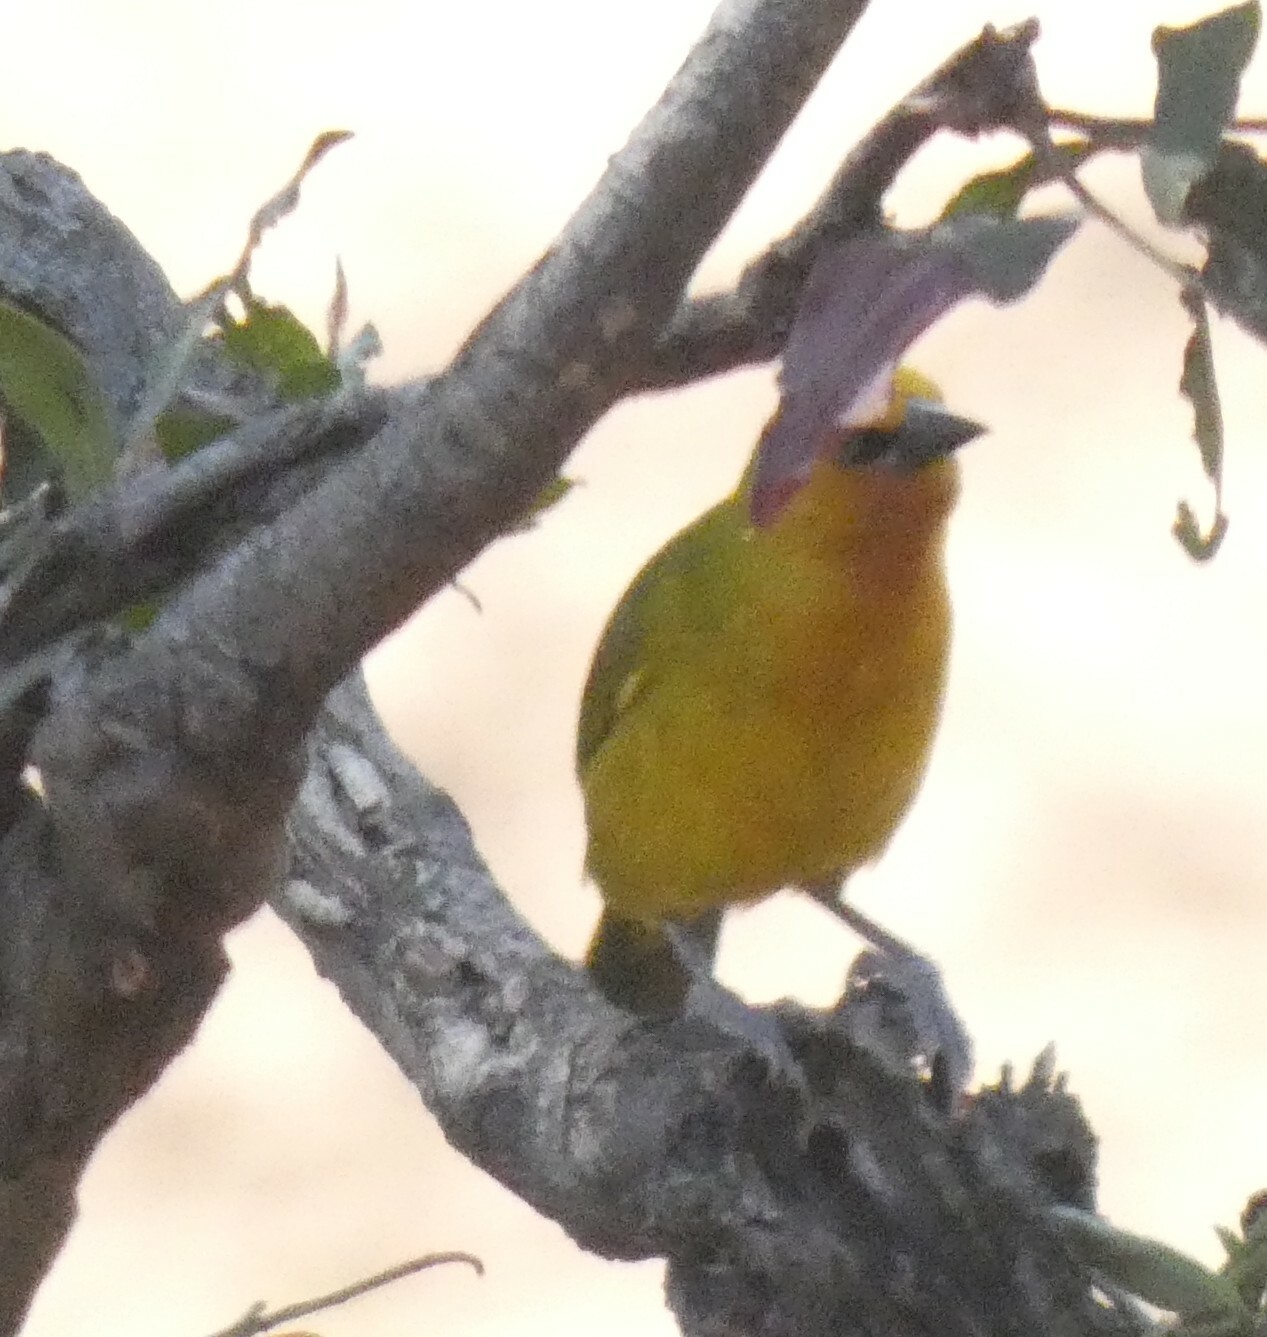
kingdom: Animalia
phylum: Chordata
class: Aves
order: Passeriformes
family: Ploceidae
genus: Ploceus
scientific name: Ploceus ocularis
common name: Spectacled weaver
